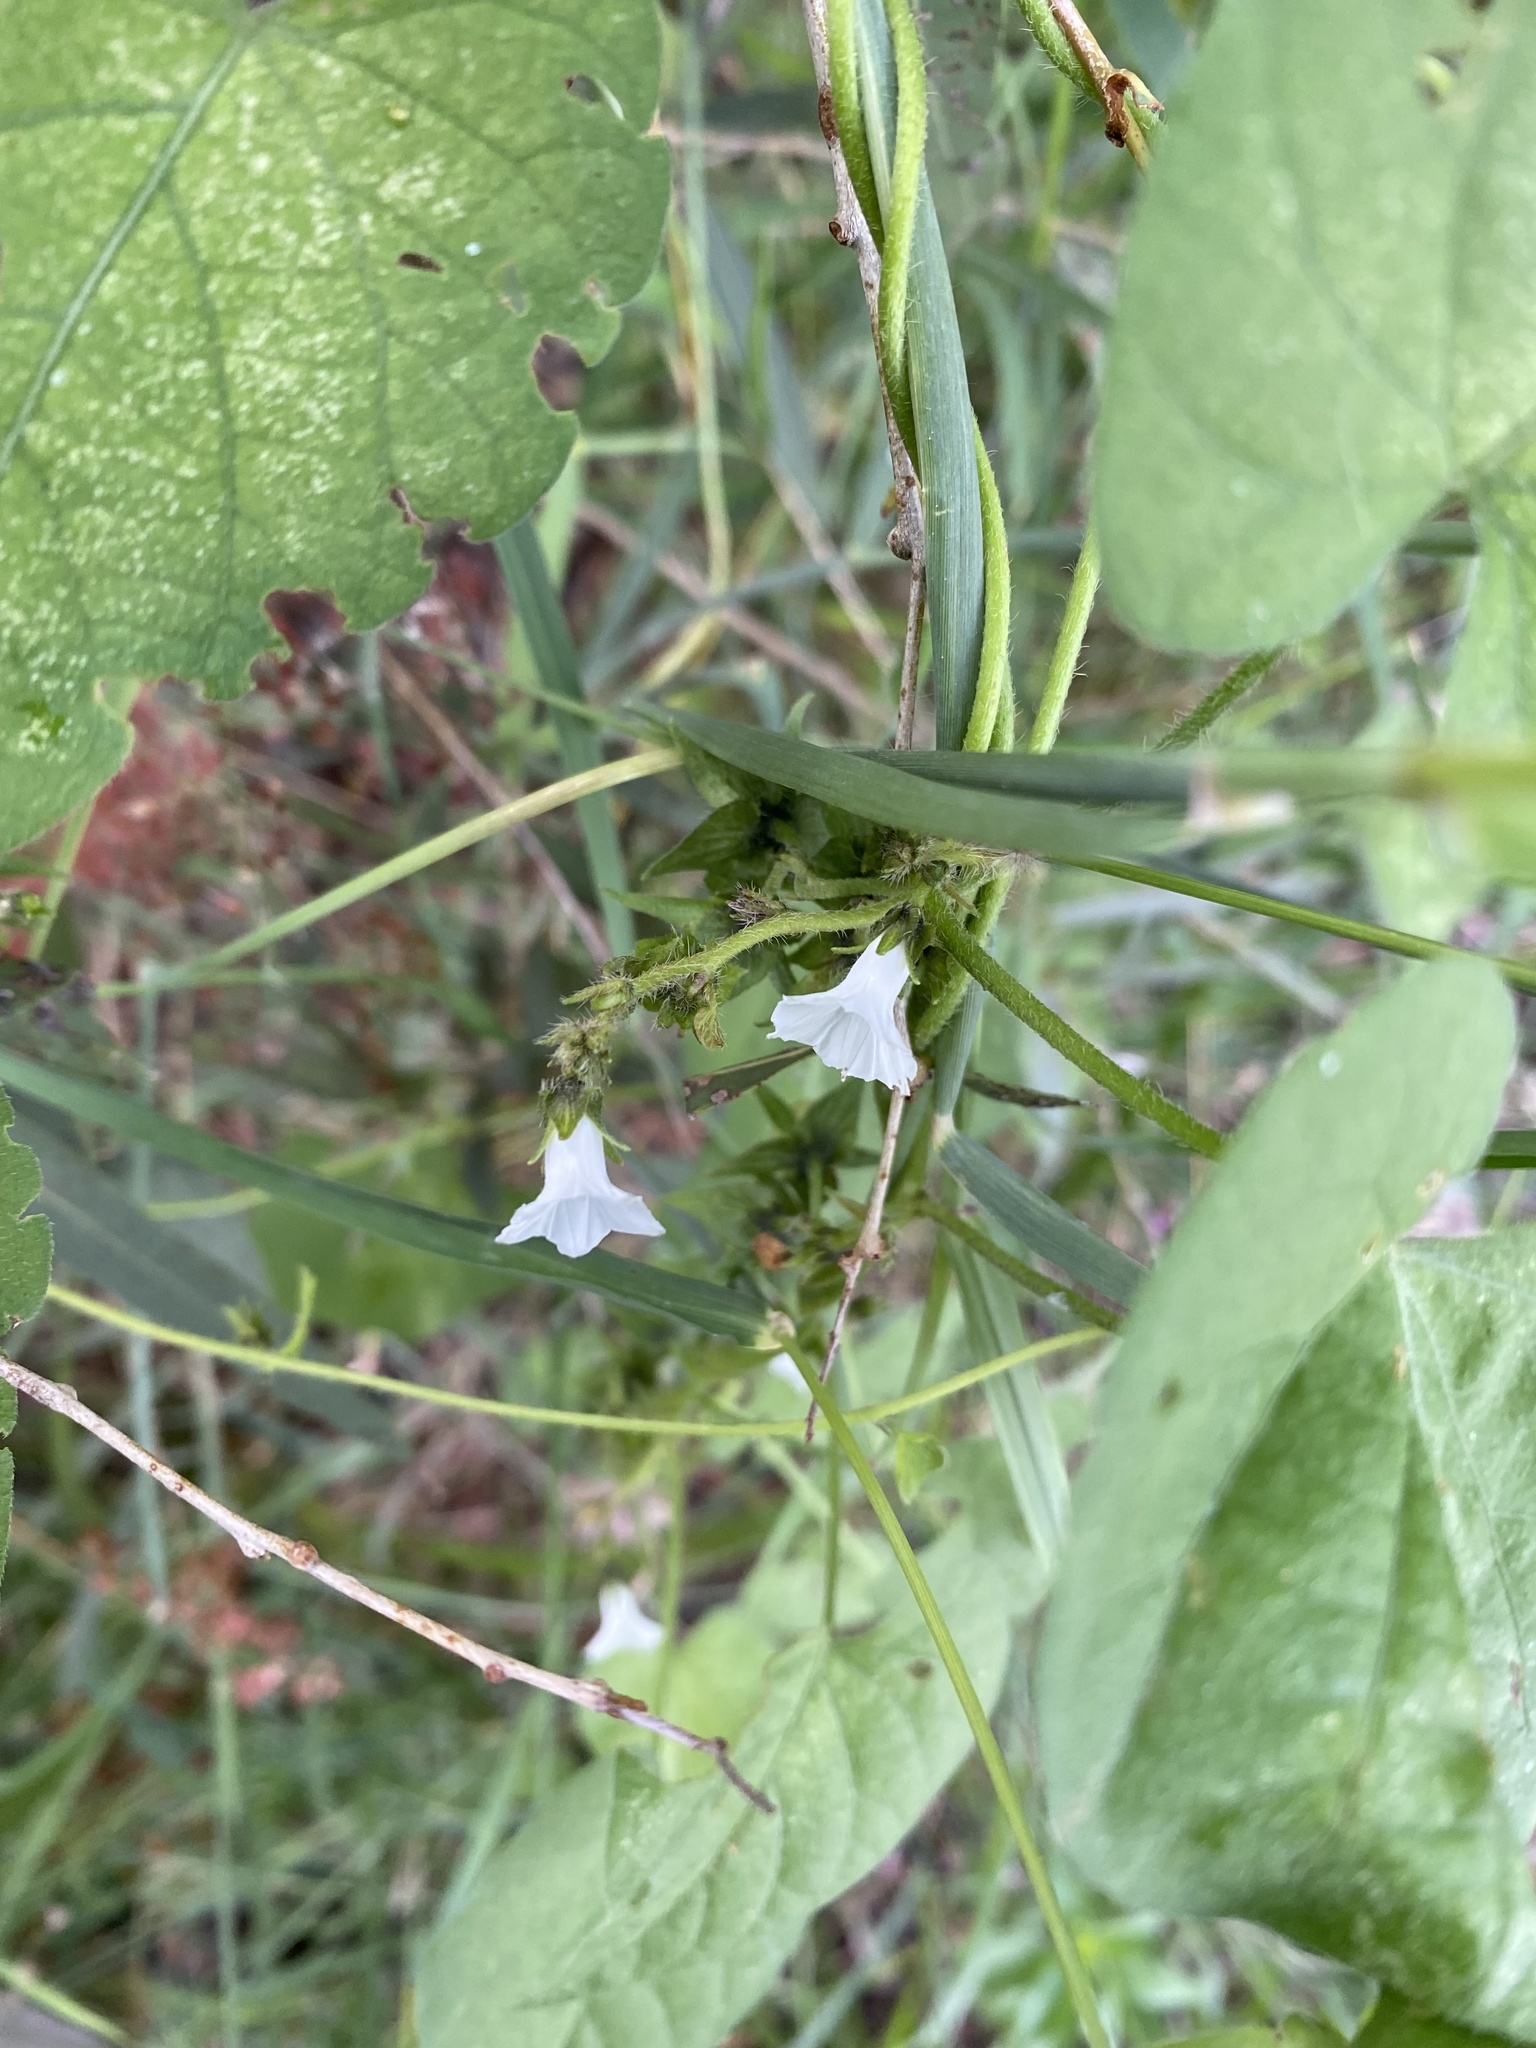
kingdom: Plantae
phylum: Tracheophyta
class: Magnoliopsida
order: Solanales
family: Convolvulaceae
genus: Ipomoea
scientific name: Ipomoea biflora
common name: Bellvine
